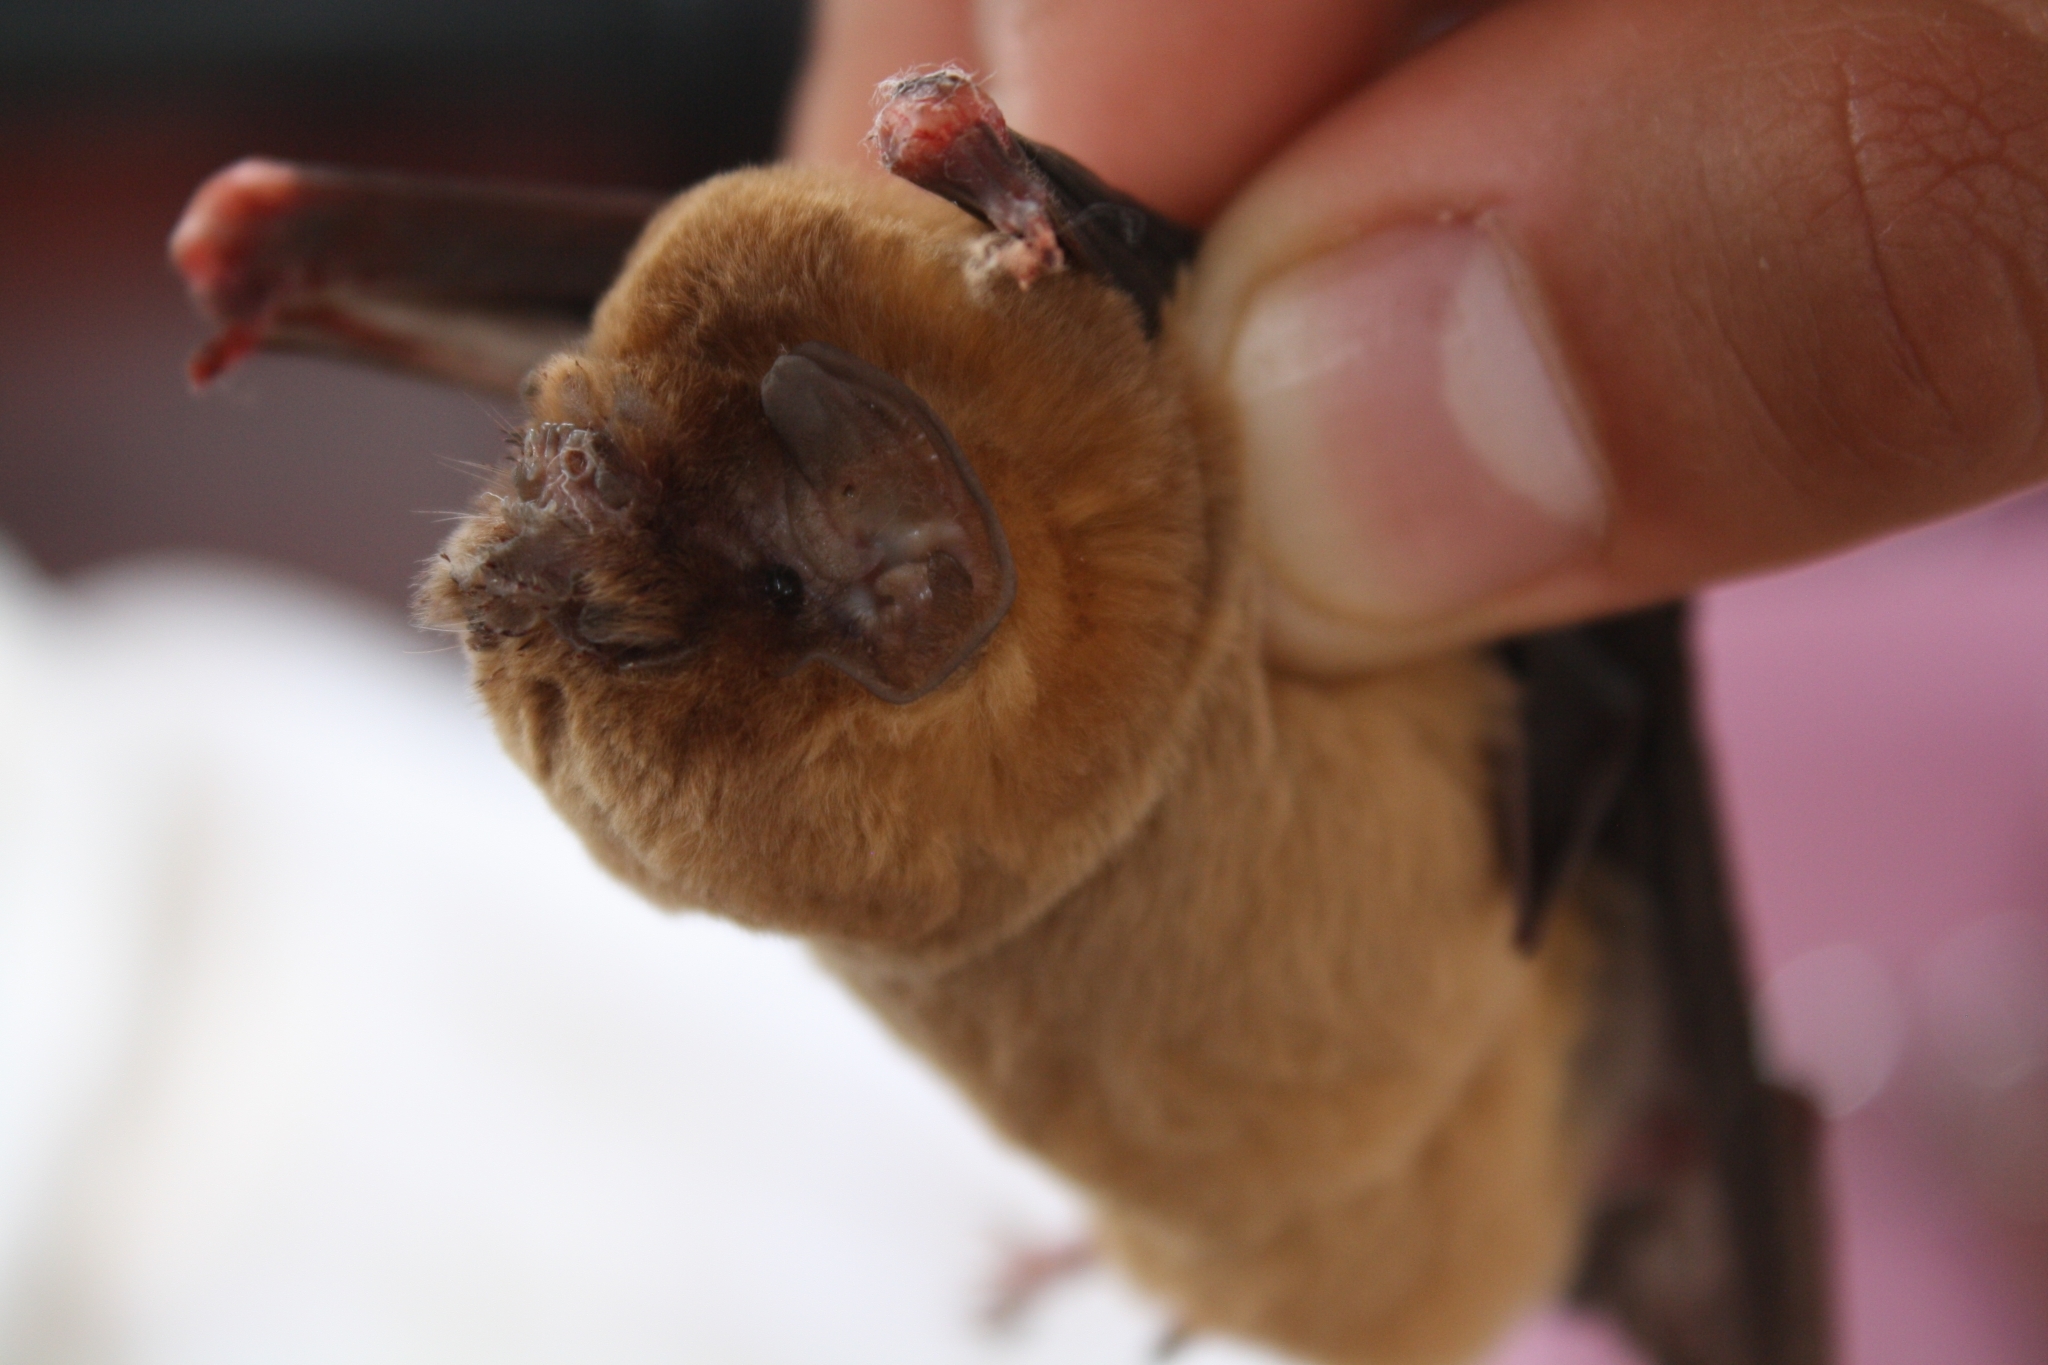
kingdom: Animalia
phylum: Chordata
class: Mammalia
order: Chiroptera
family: Mormoopidae
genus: Mormoops
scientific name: Mormoops megalophylla
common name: Peters's ghost-faced bat
